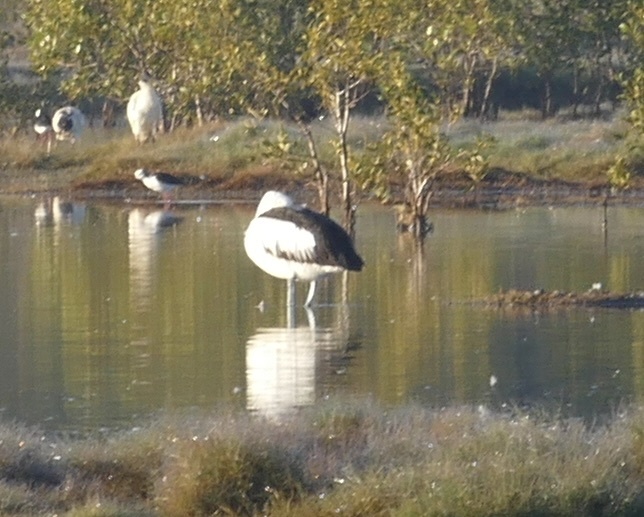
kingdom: Animalia
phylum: Chordata
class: Aves
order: Pelecaniformes
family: Pelecanidae
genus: Pelecanus
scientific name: Pelecanus conspicillatus
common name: Australian pelican
